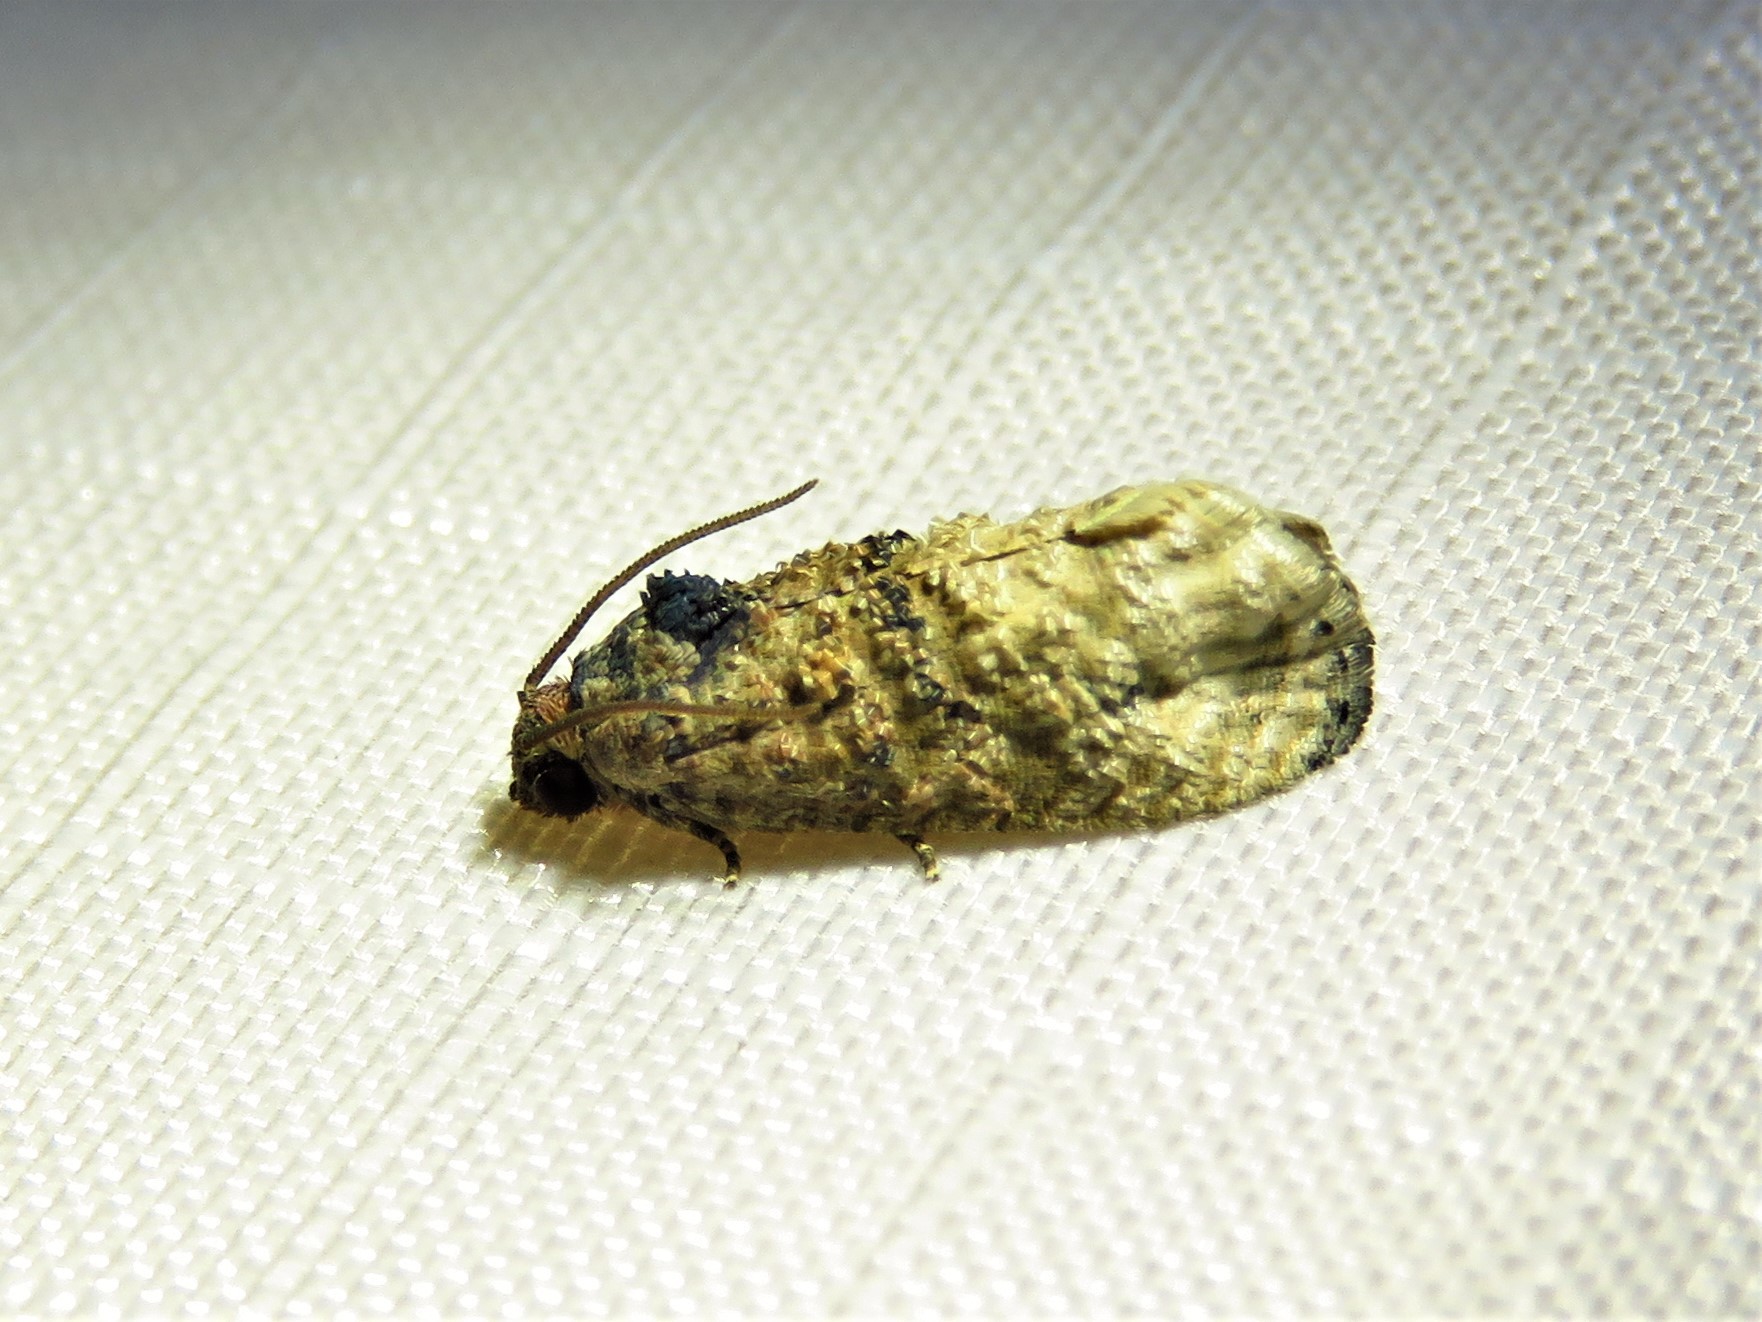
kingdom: Animalia
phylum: Arthropoda
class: Insecta
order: Lepidoptera
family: Tortricidae
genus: Ecdytolopha
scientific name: Ecdytolopha mana
